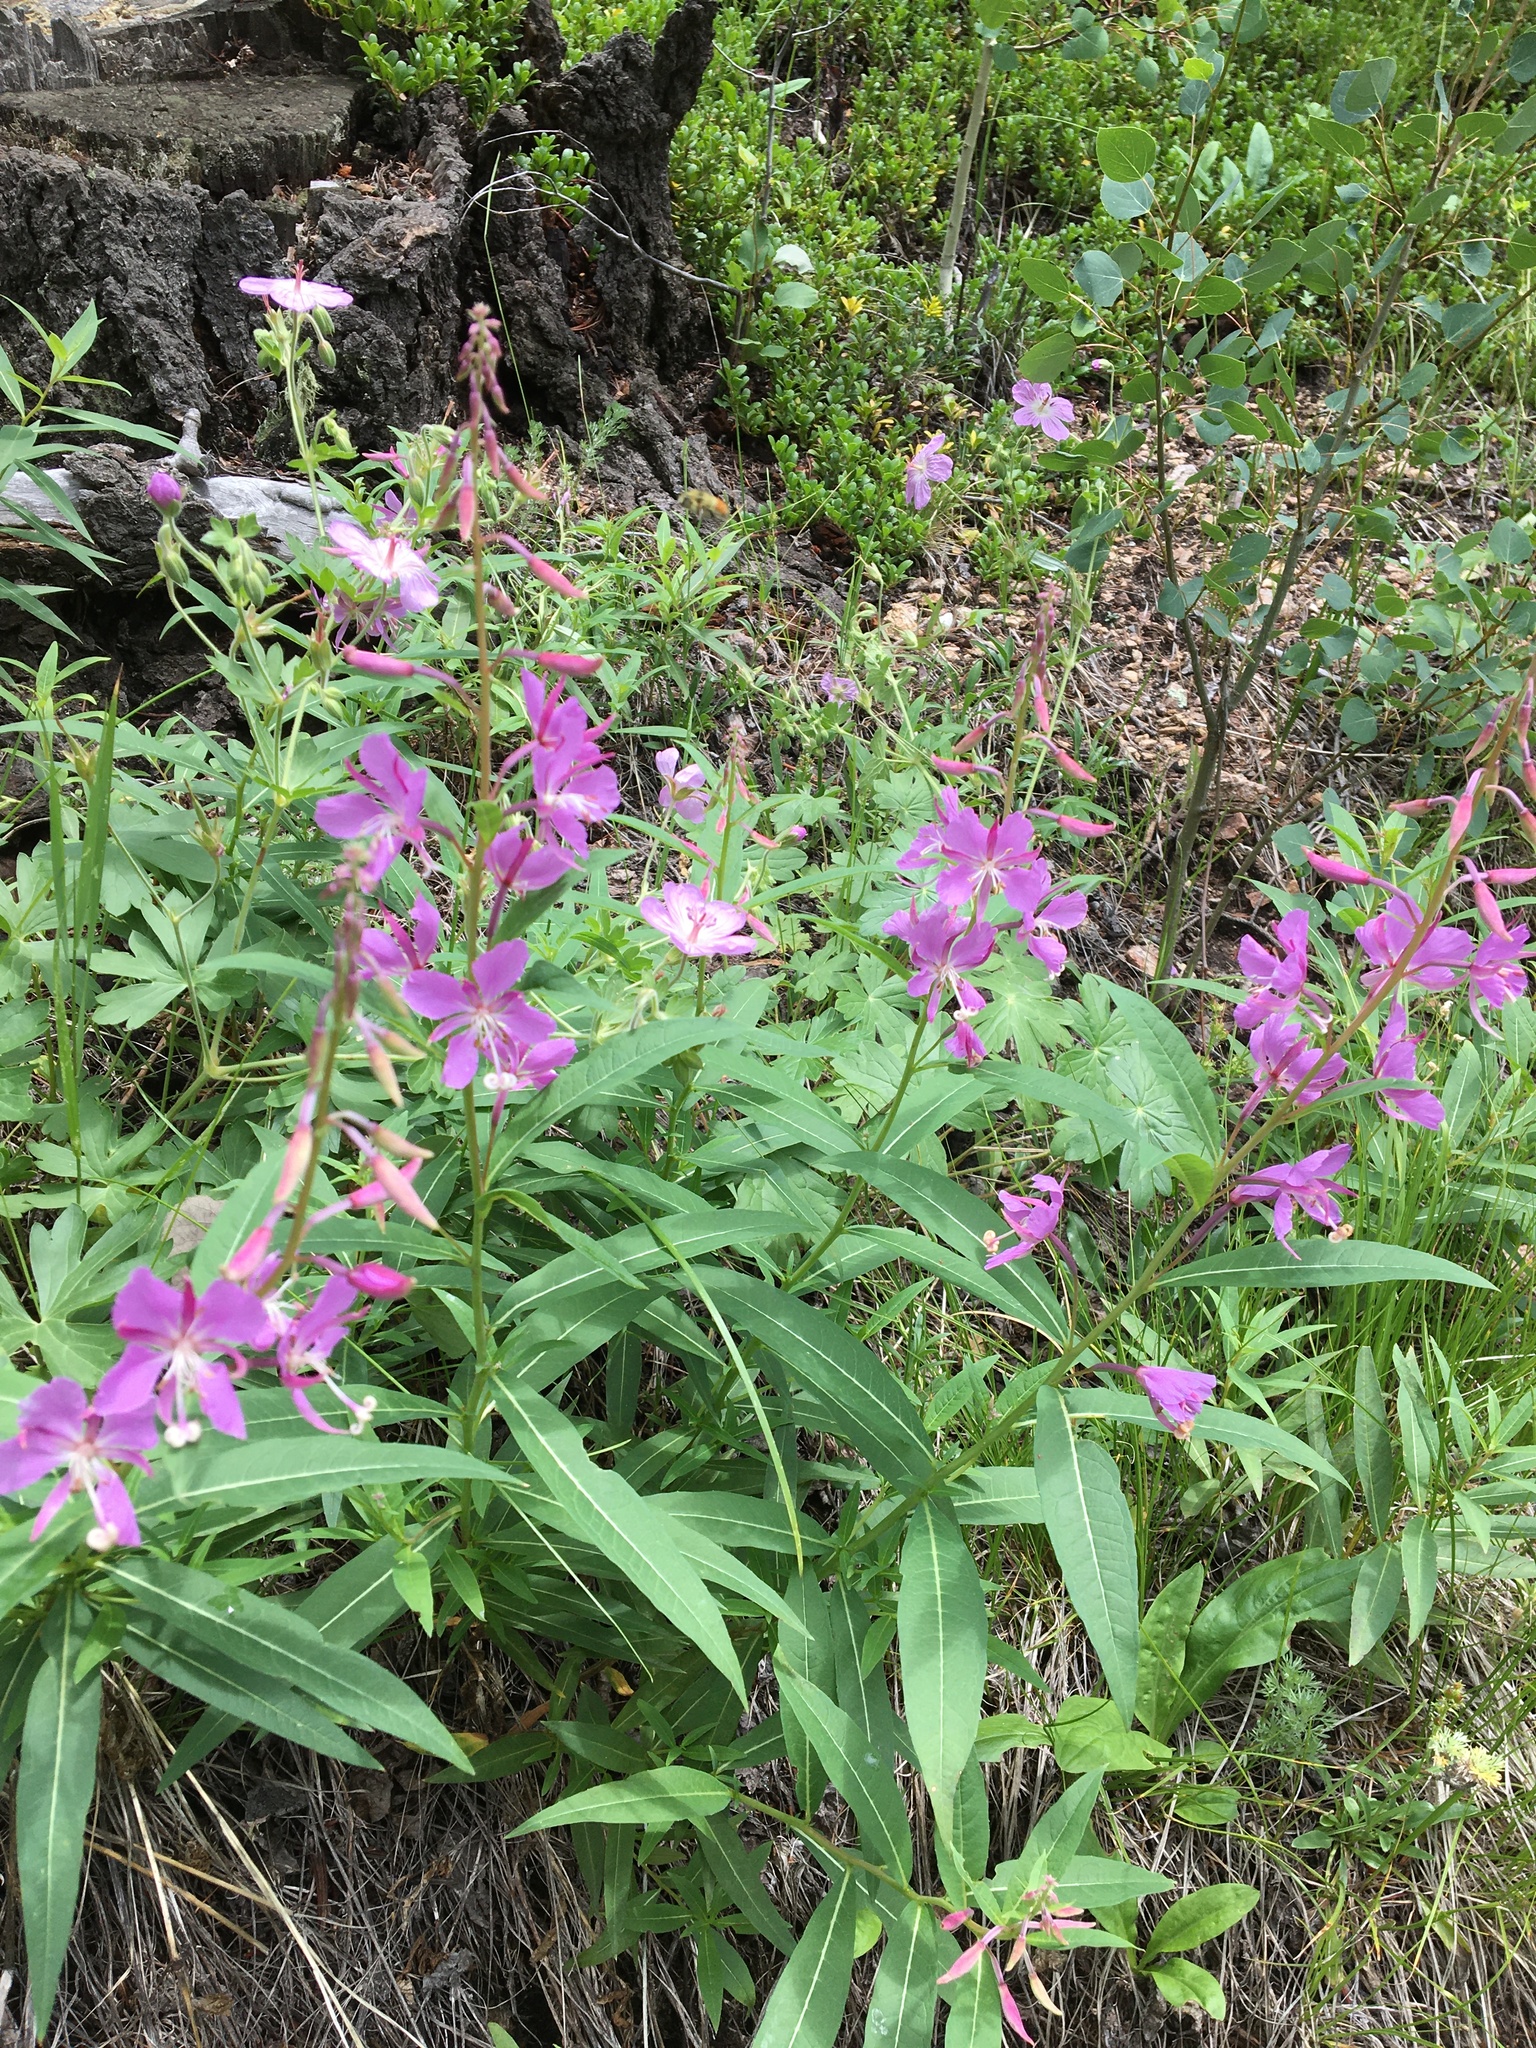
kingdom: Plantae
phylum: Tracheophyta
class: Magnoliopsida
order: Myrtales
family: Onagraceae
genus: Chamaenerion
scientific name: Chamaenerion angustifolium
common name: Fireweed
